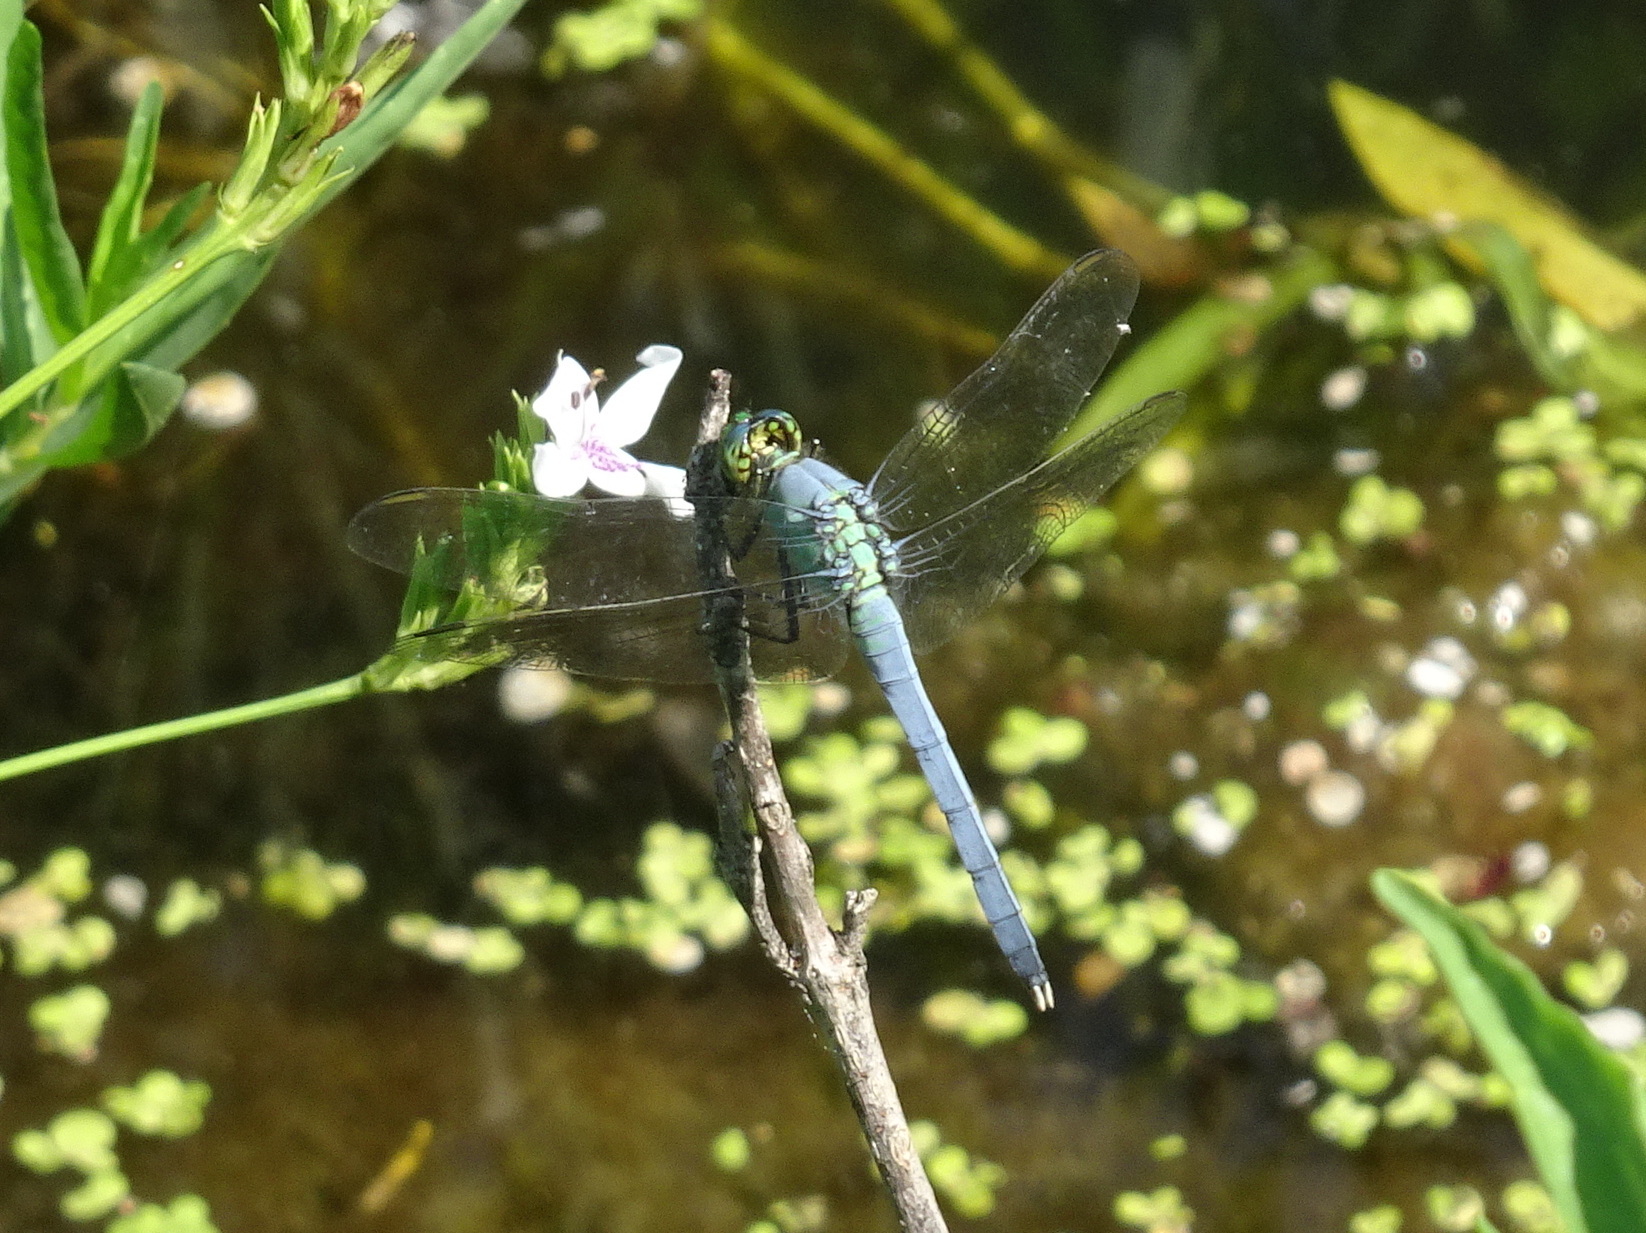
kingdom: Animalia
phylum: Arthropoda
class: Insecta
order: Odonata
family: Libellulidae
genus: Erythemis
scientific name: Erythemis simplicicollis
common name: Eastern pondhawk
